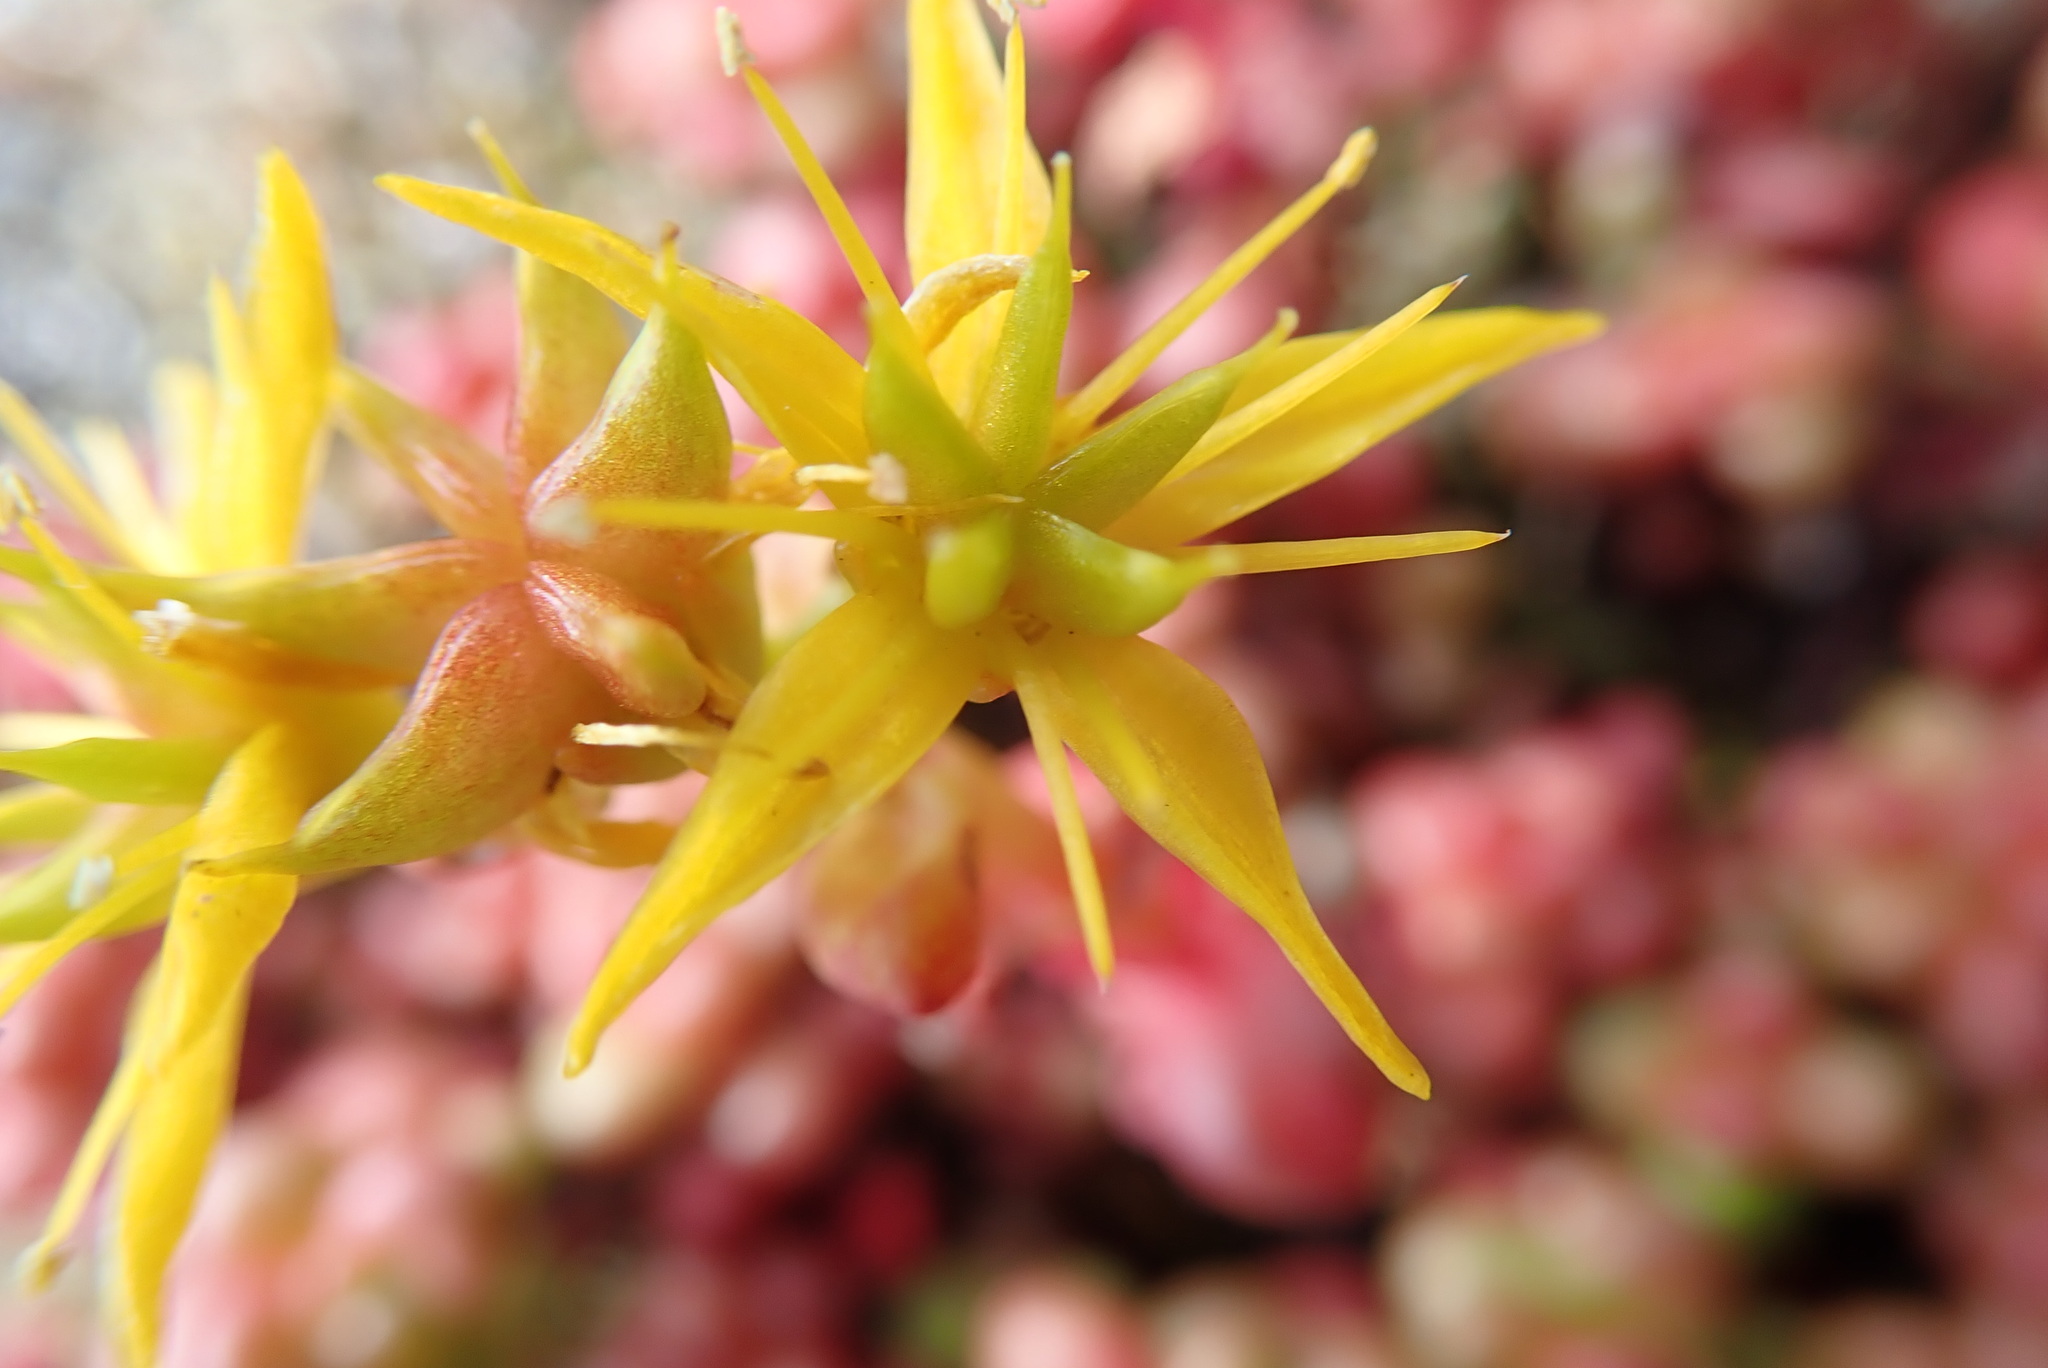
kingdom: Plantae
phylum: Tracheophyta
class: Magnoliopsida
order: Saxifragales
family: Crassulaceae
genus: Sedum
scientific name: Sedum divergens
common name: Cascade stonecrop
